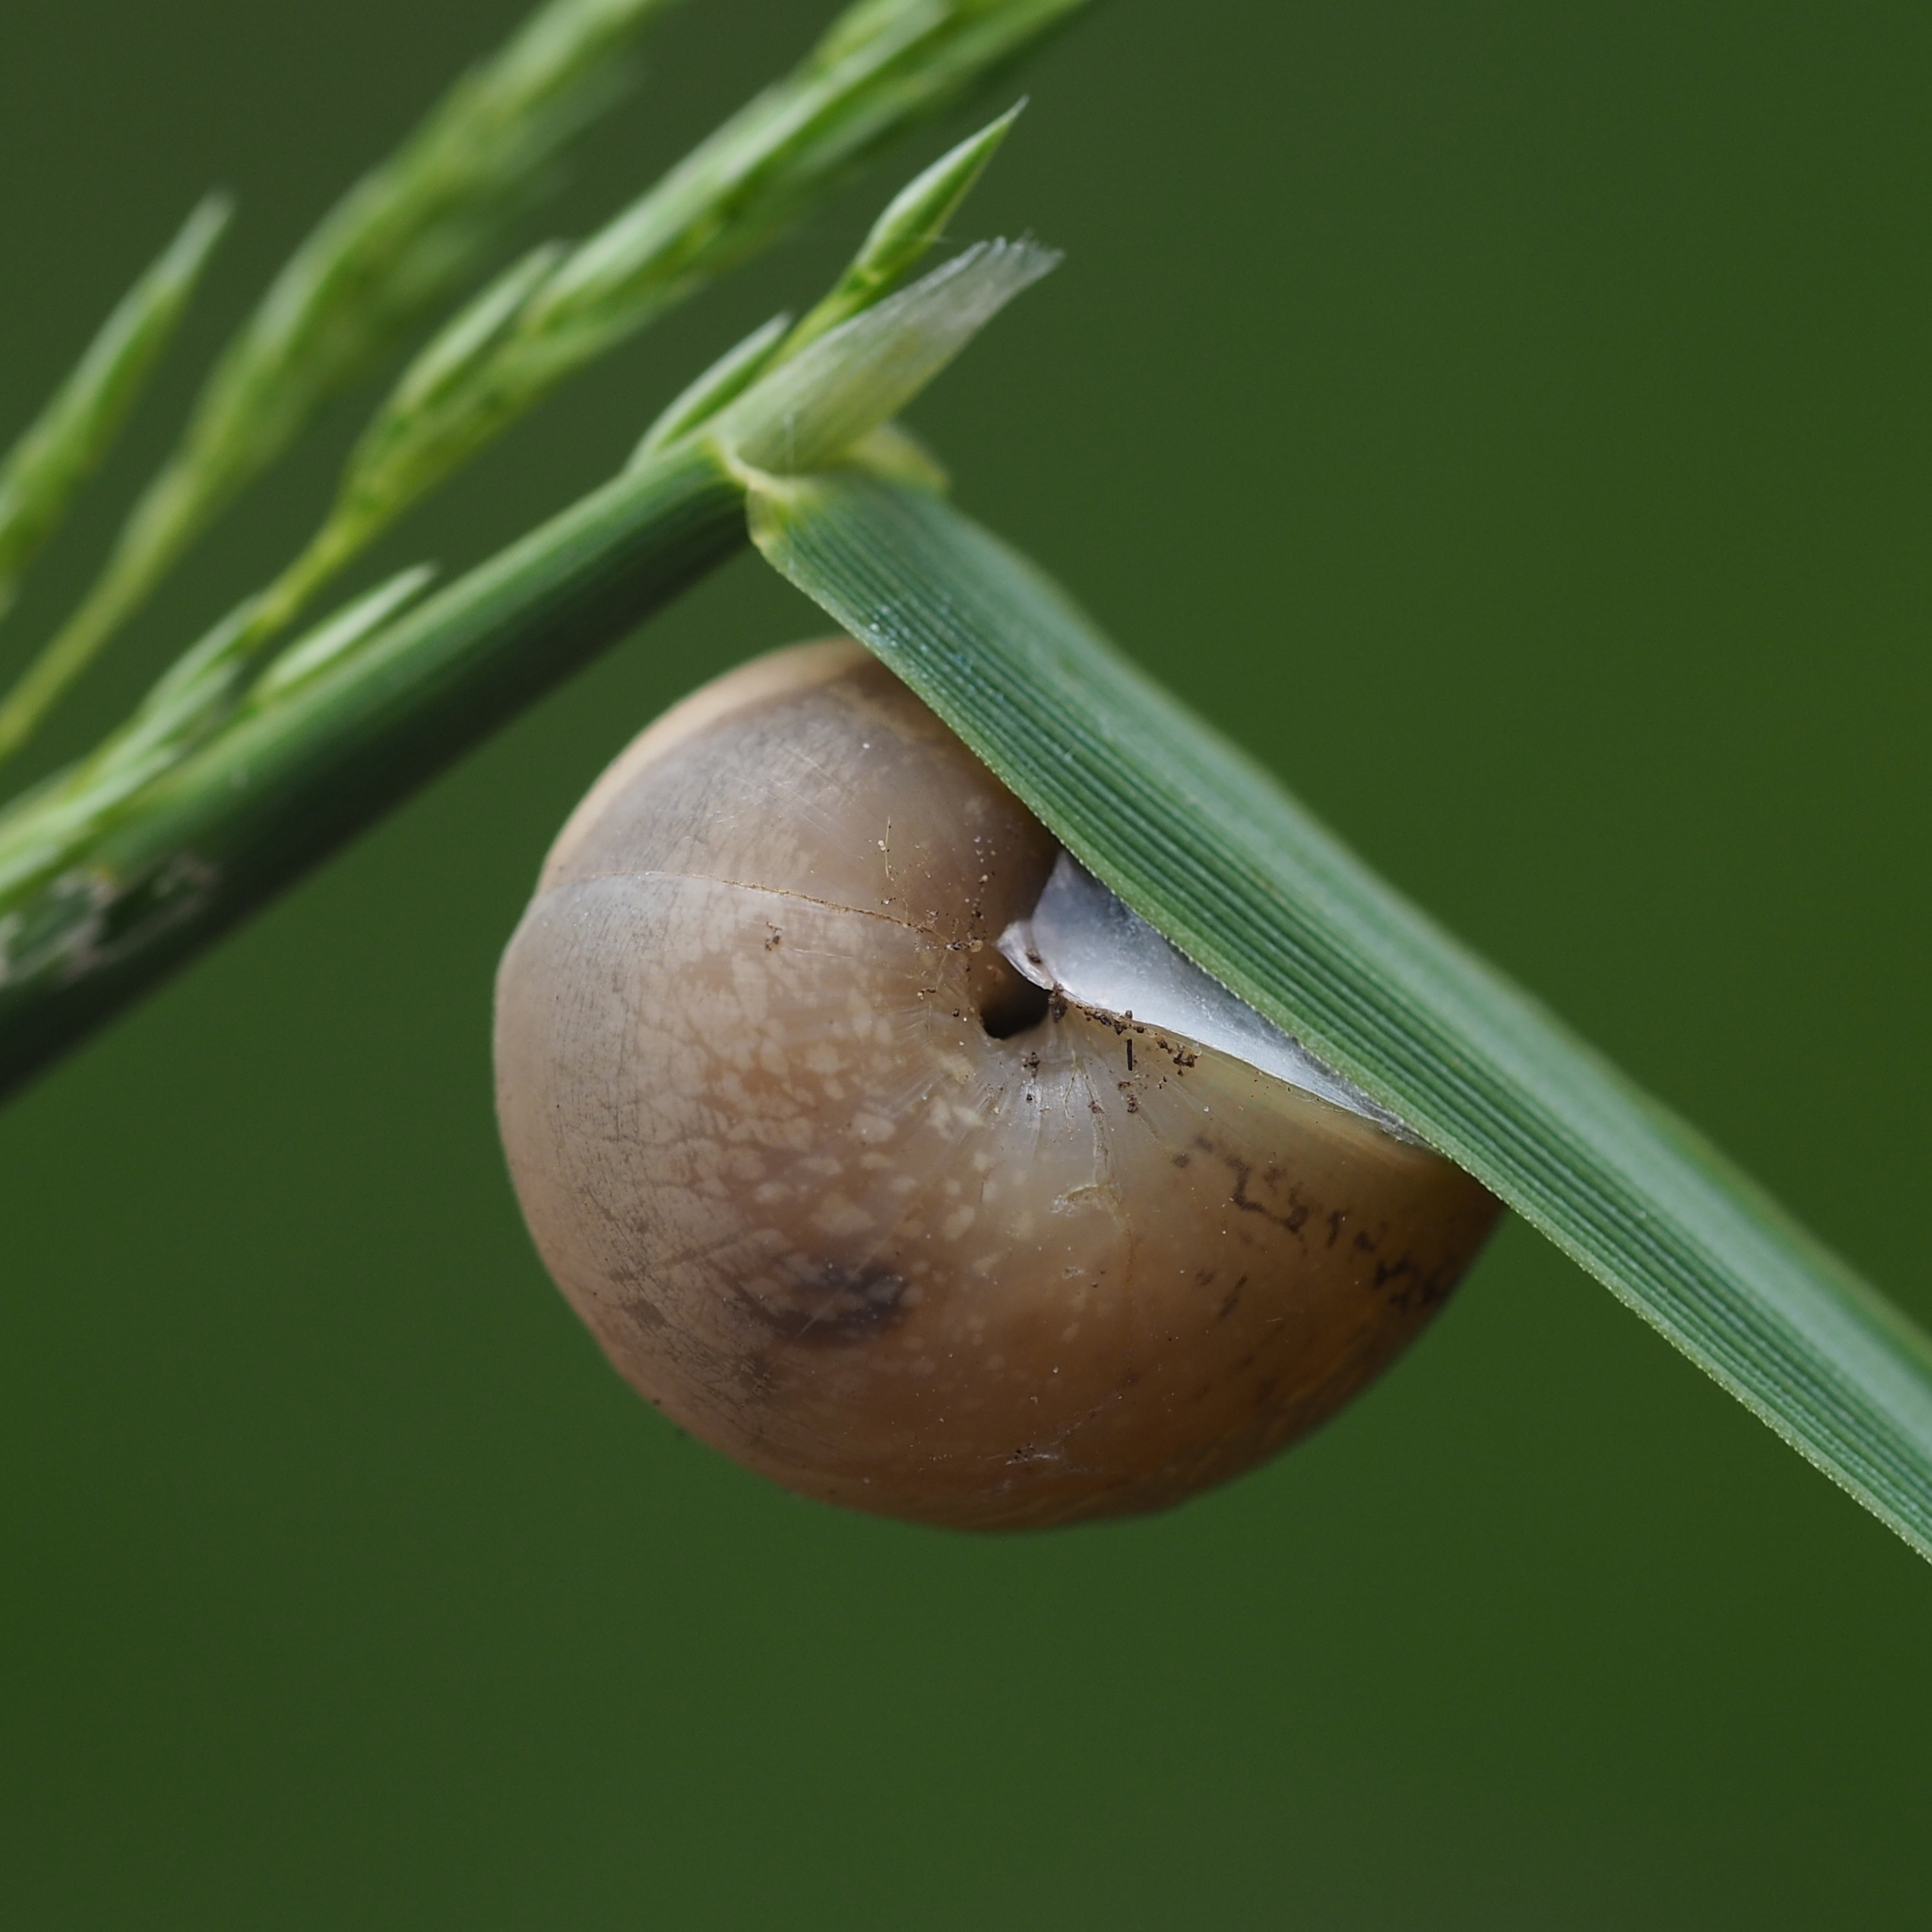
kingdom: Animalia
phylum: Mollusca
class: Gastropoda
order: Stylommatophora
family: Hygromiidae
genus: Monacha
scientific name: Monacha
